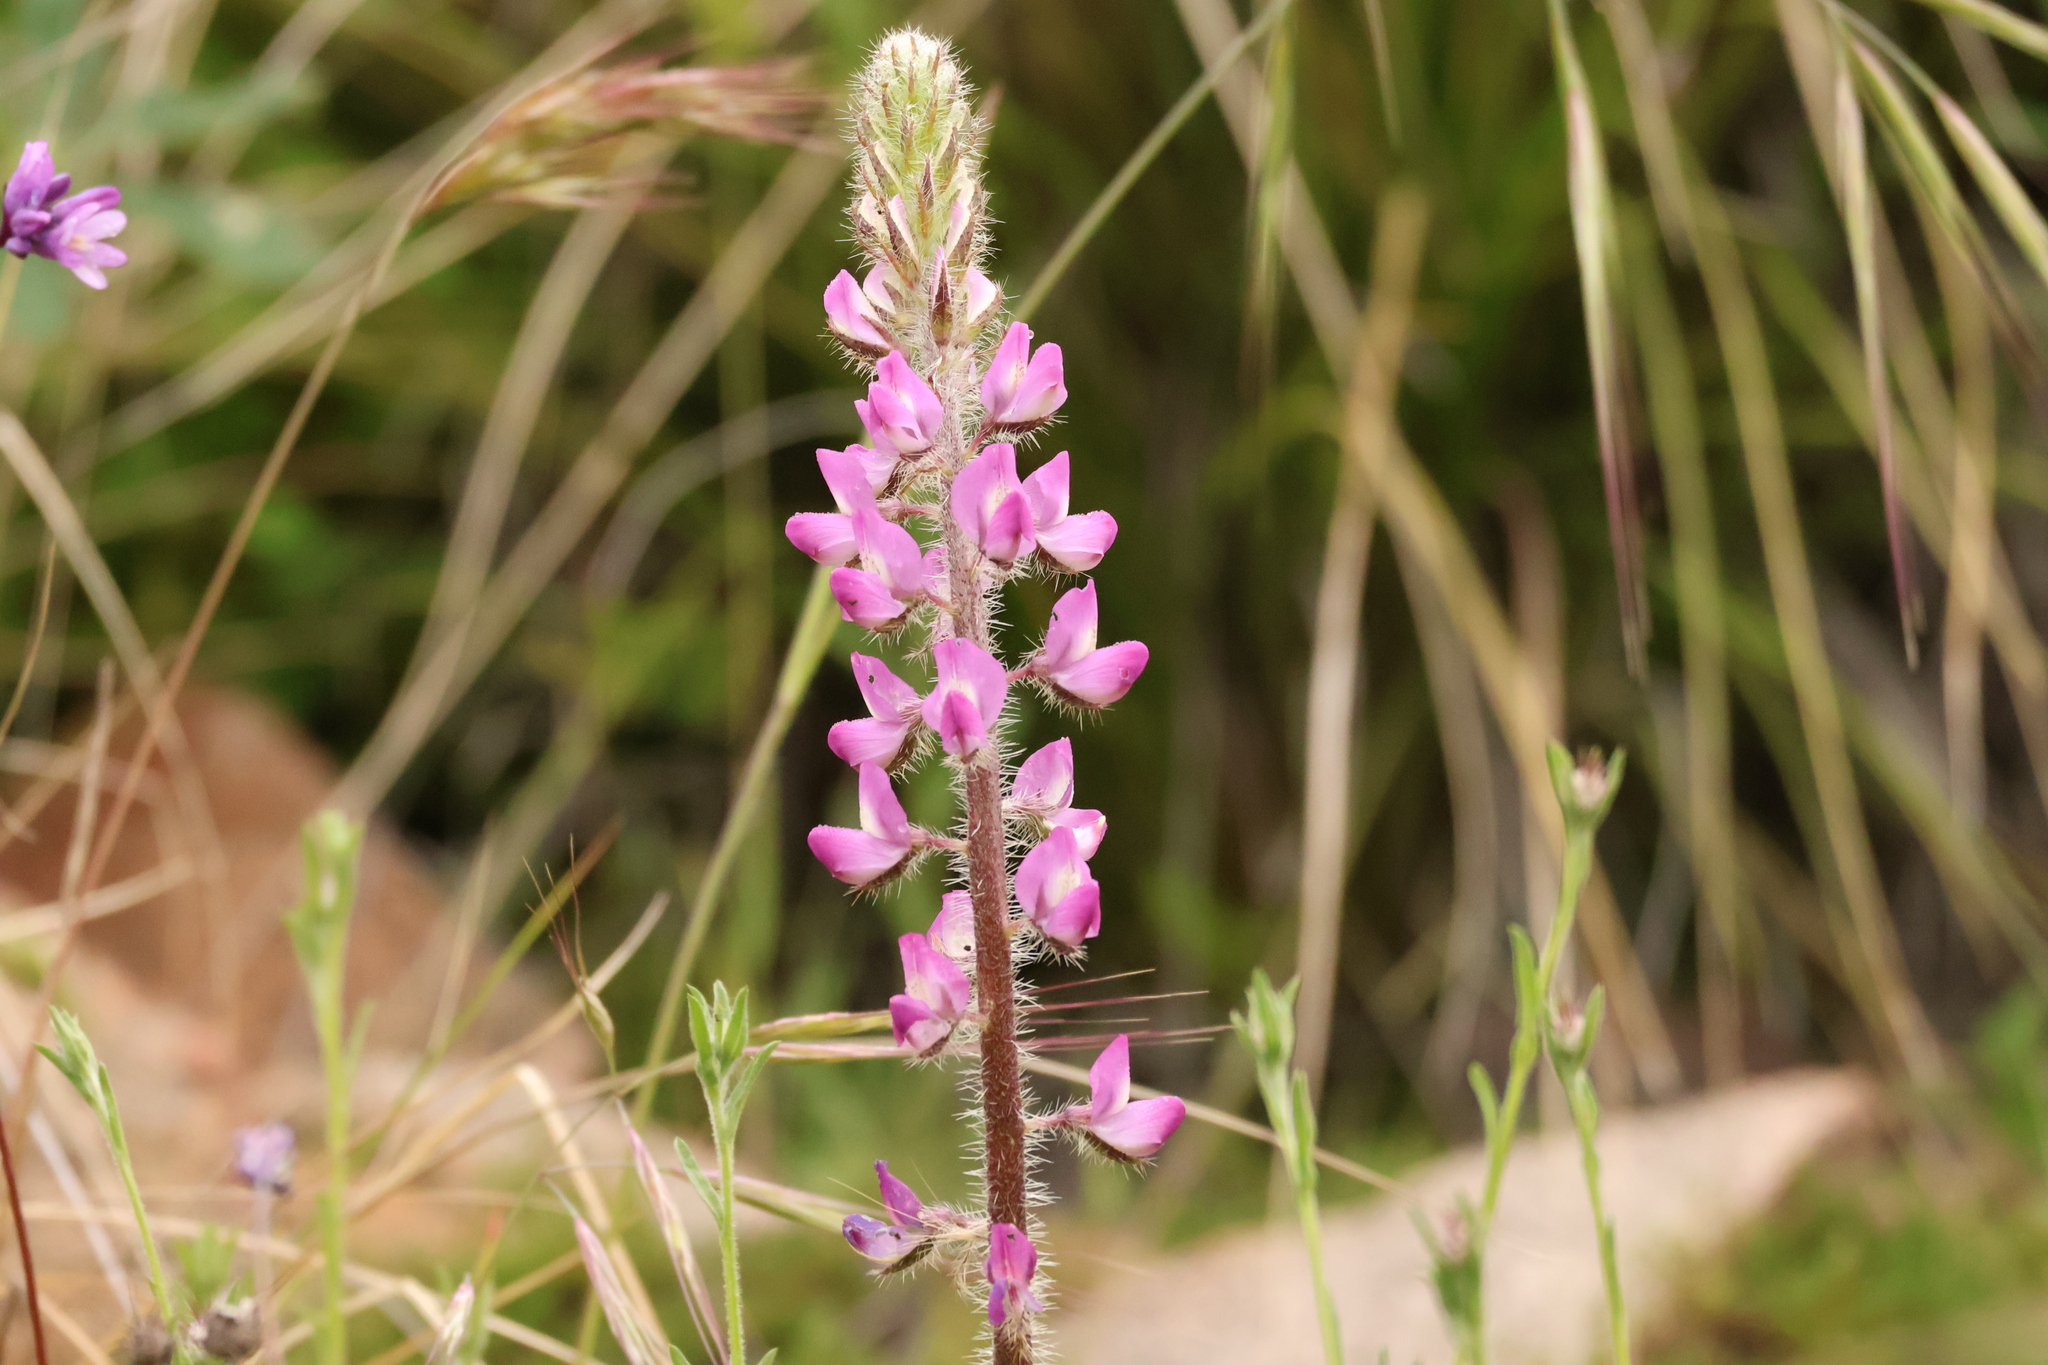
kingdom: Plantae
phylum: Tracheophyta
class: Magnoliopsida
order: Fabales
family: Fabaceae
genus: Lupinus
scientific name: Lupinus hirsutissimus
